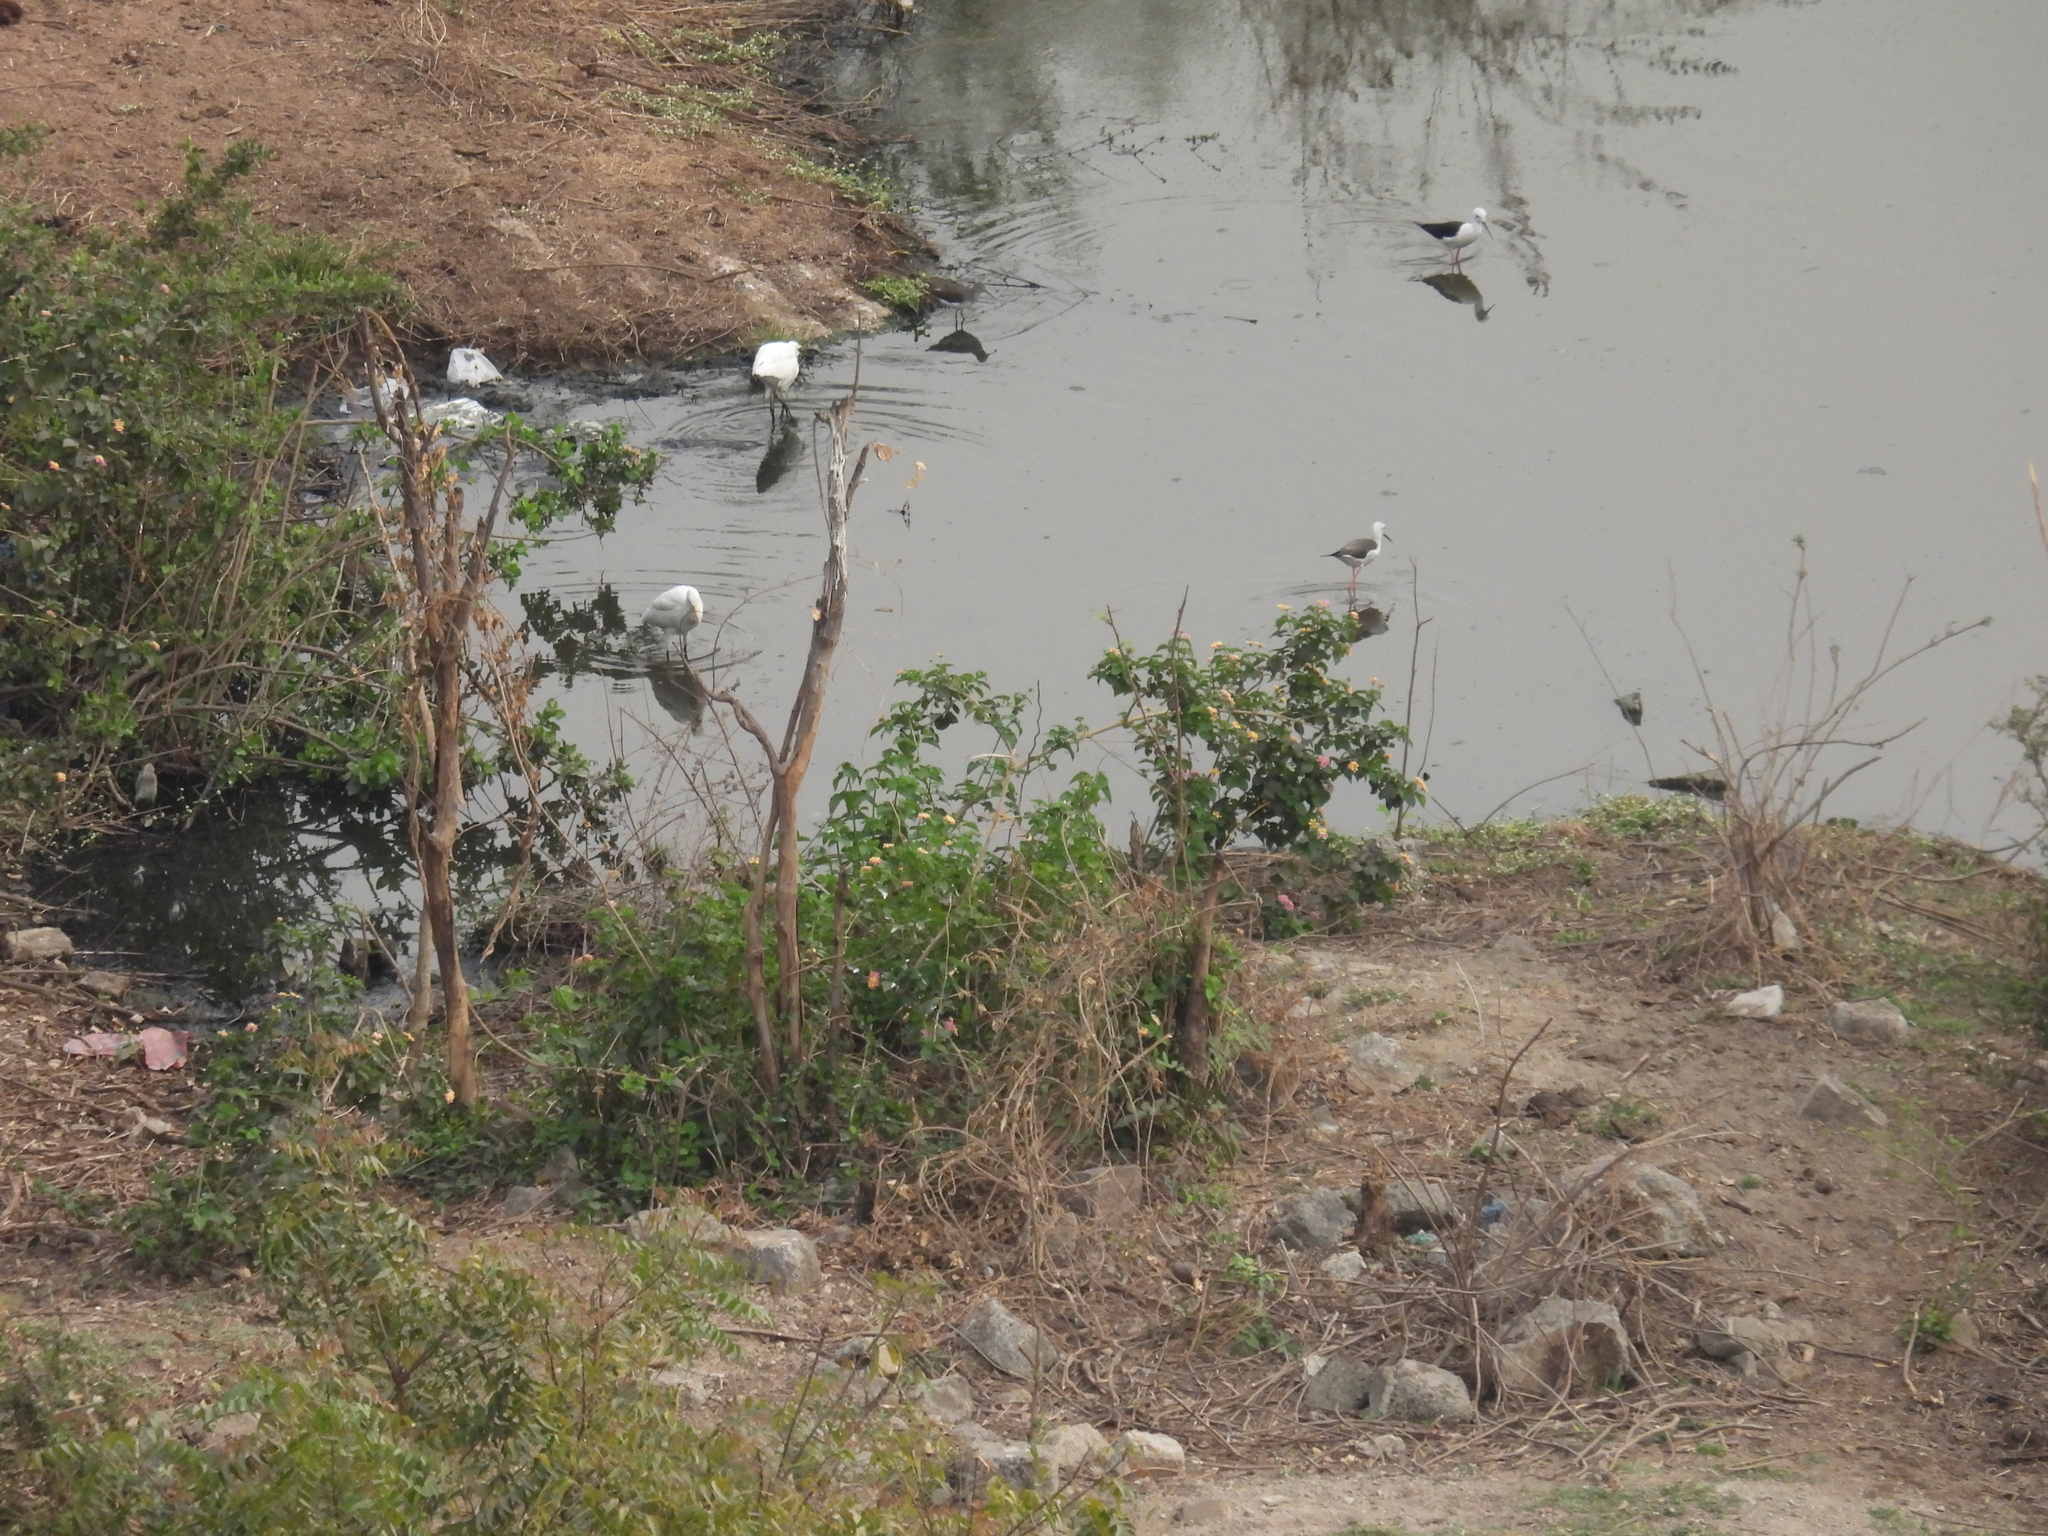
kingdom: Animalia
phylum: Chordata
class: Aves
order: Pelecaniformes
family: Ardeidae
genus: Egretta
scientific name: Egretta garzetta
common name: Little egret
